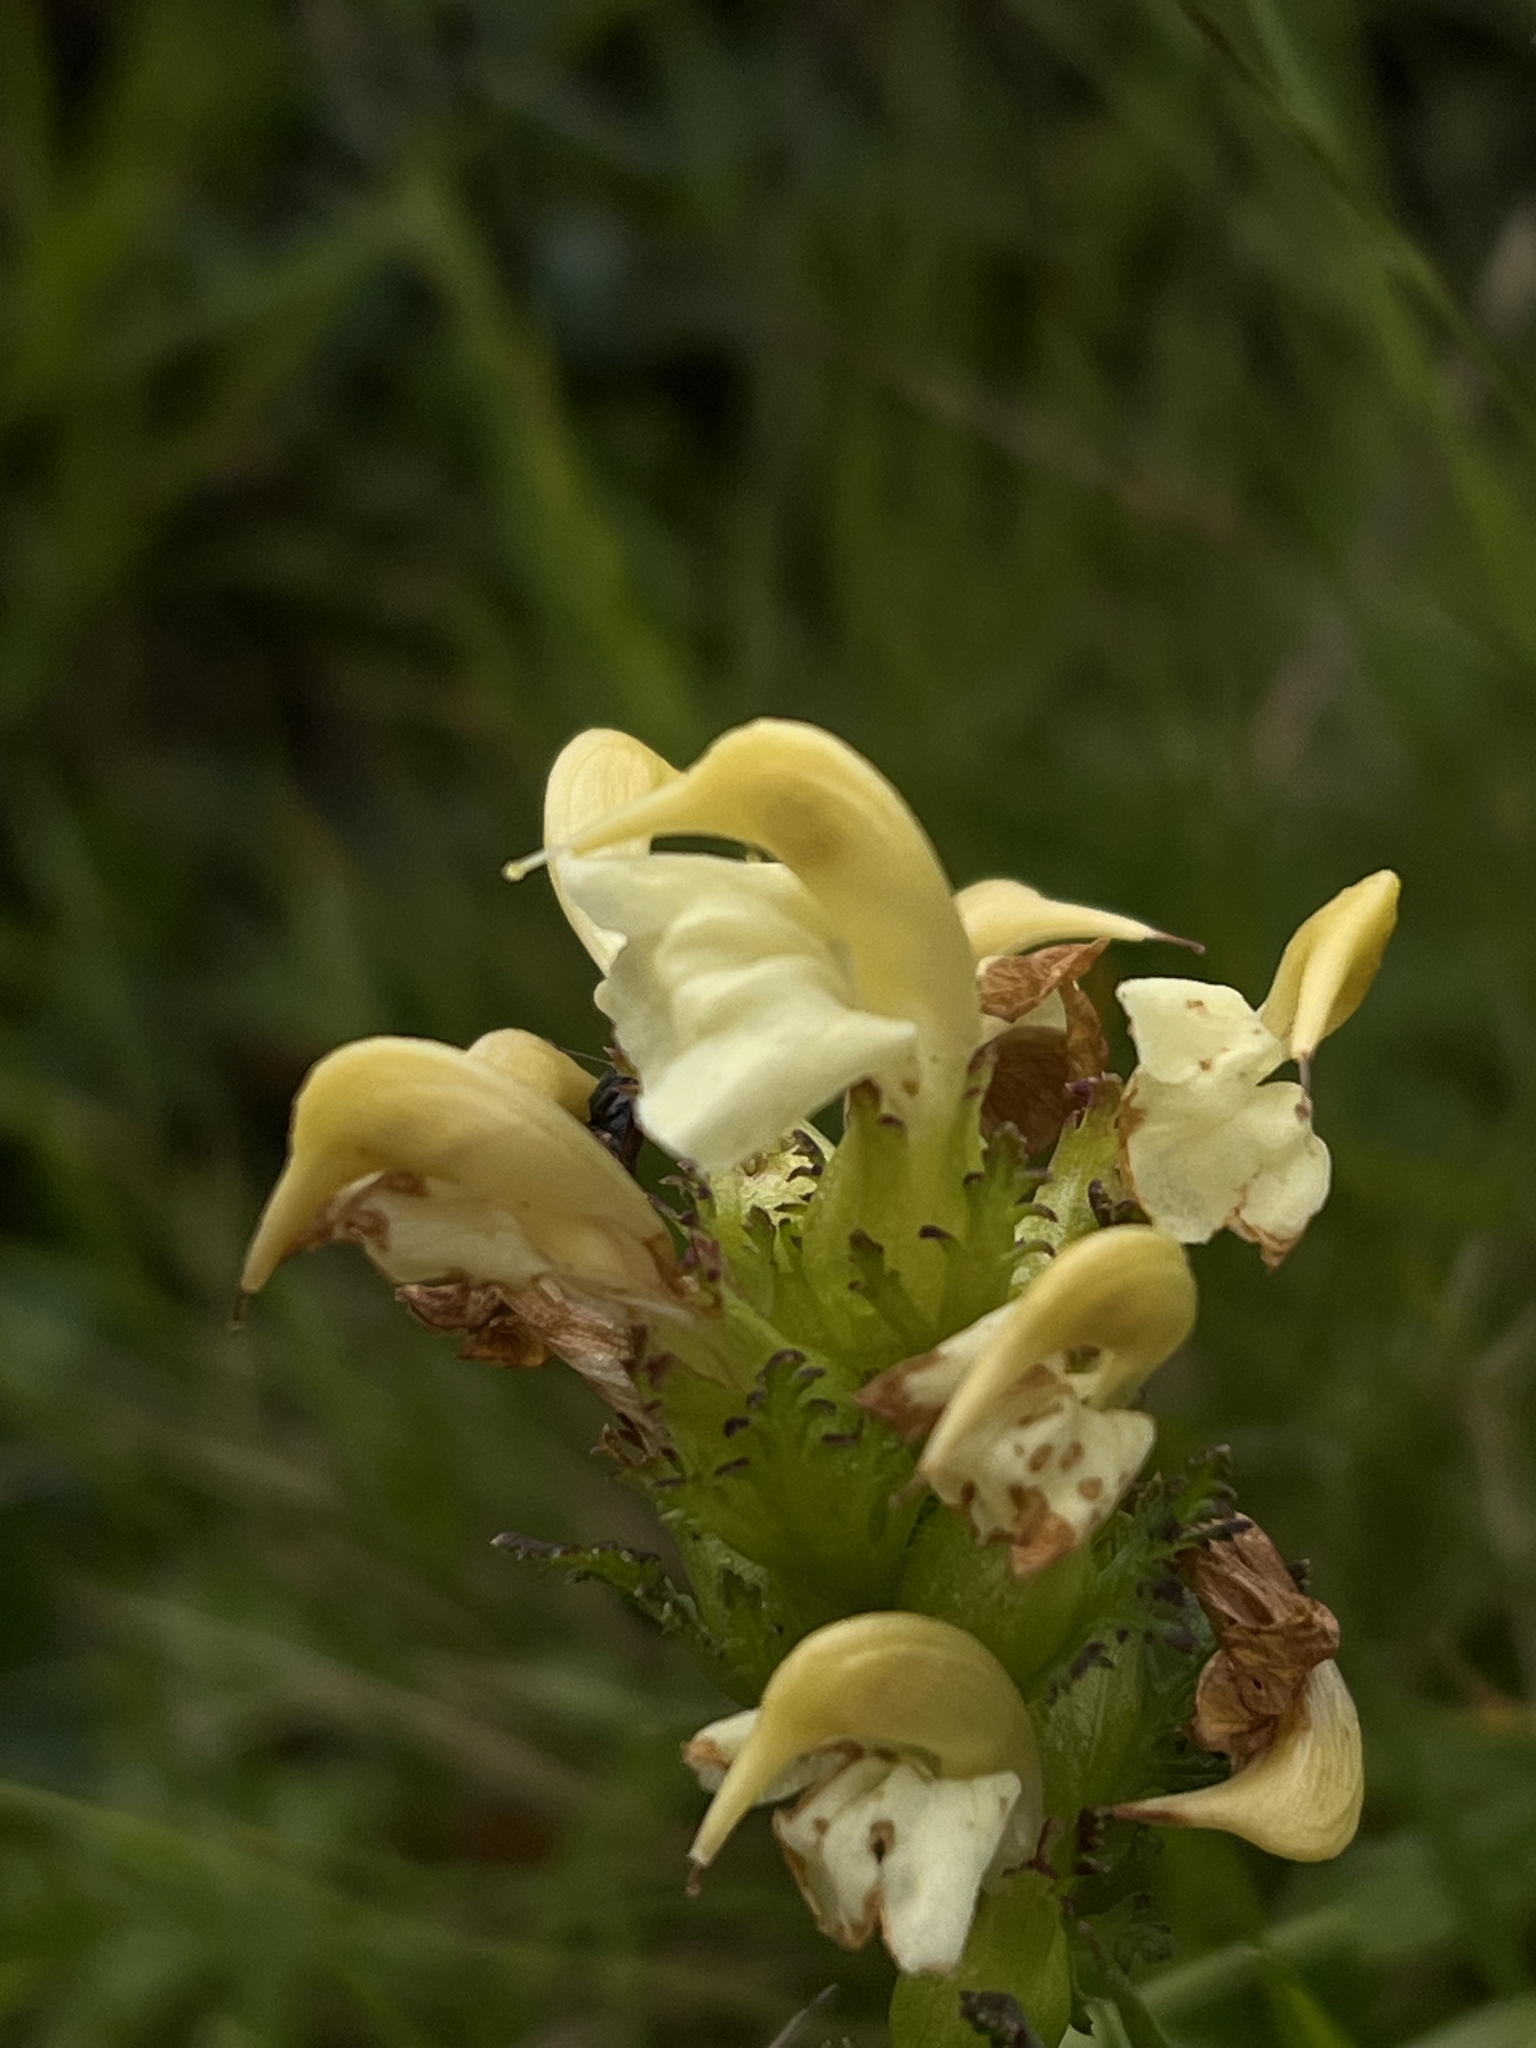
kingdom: Plantae
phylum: Tracheophyta
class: Magnoliopsida
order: Lamiales
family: Orobanchaceae
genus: Pedicularis
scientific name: Pedicularis tuberosa
